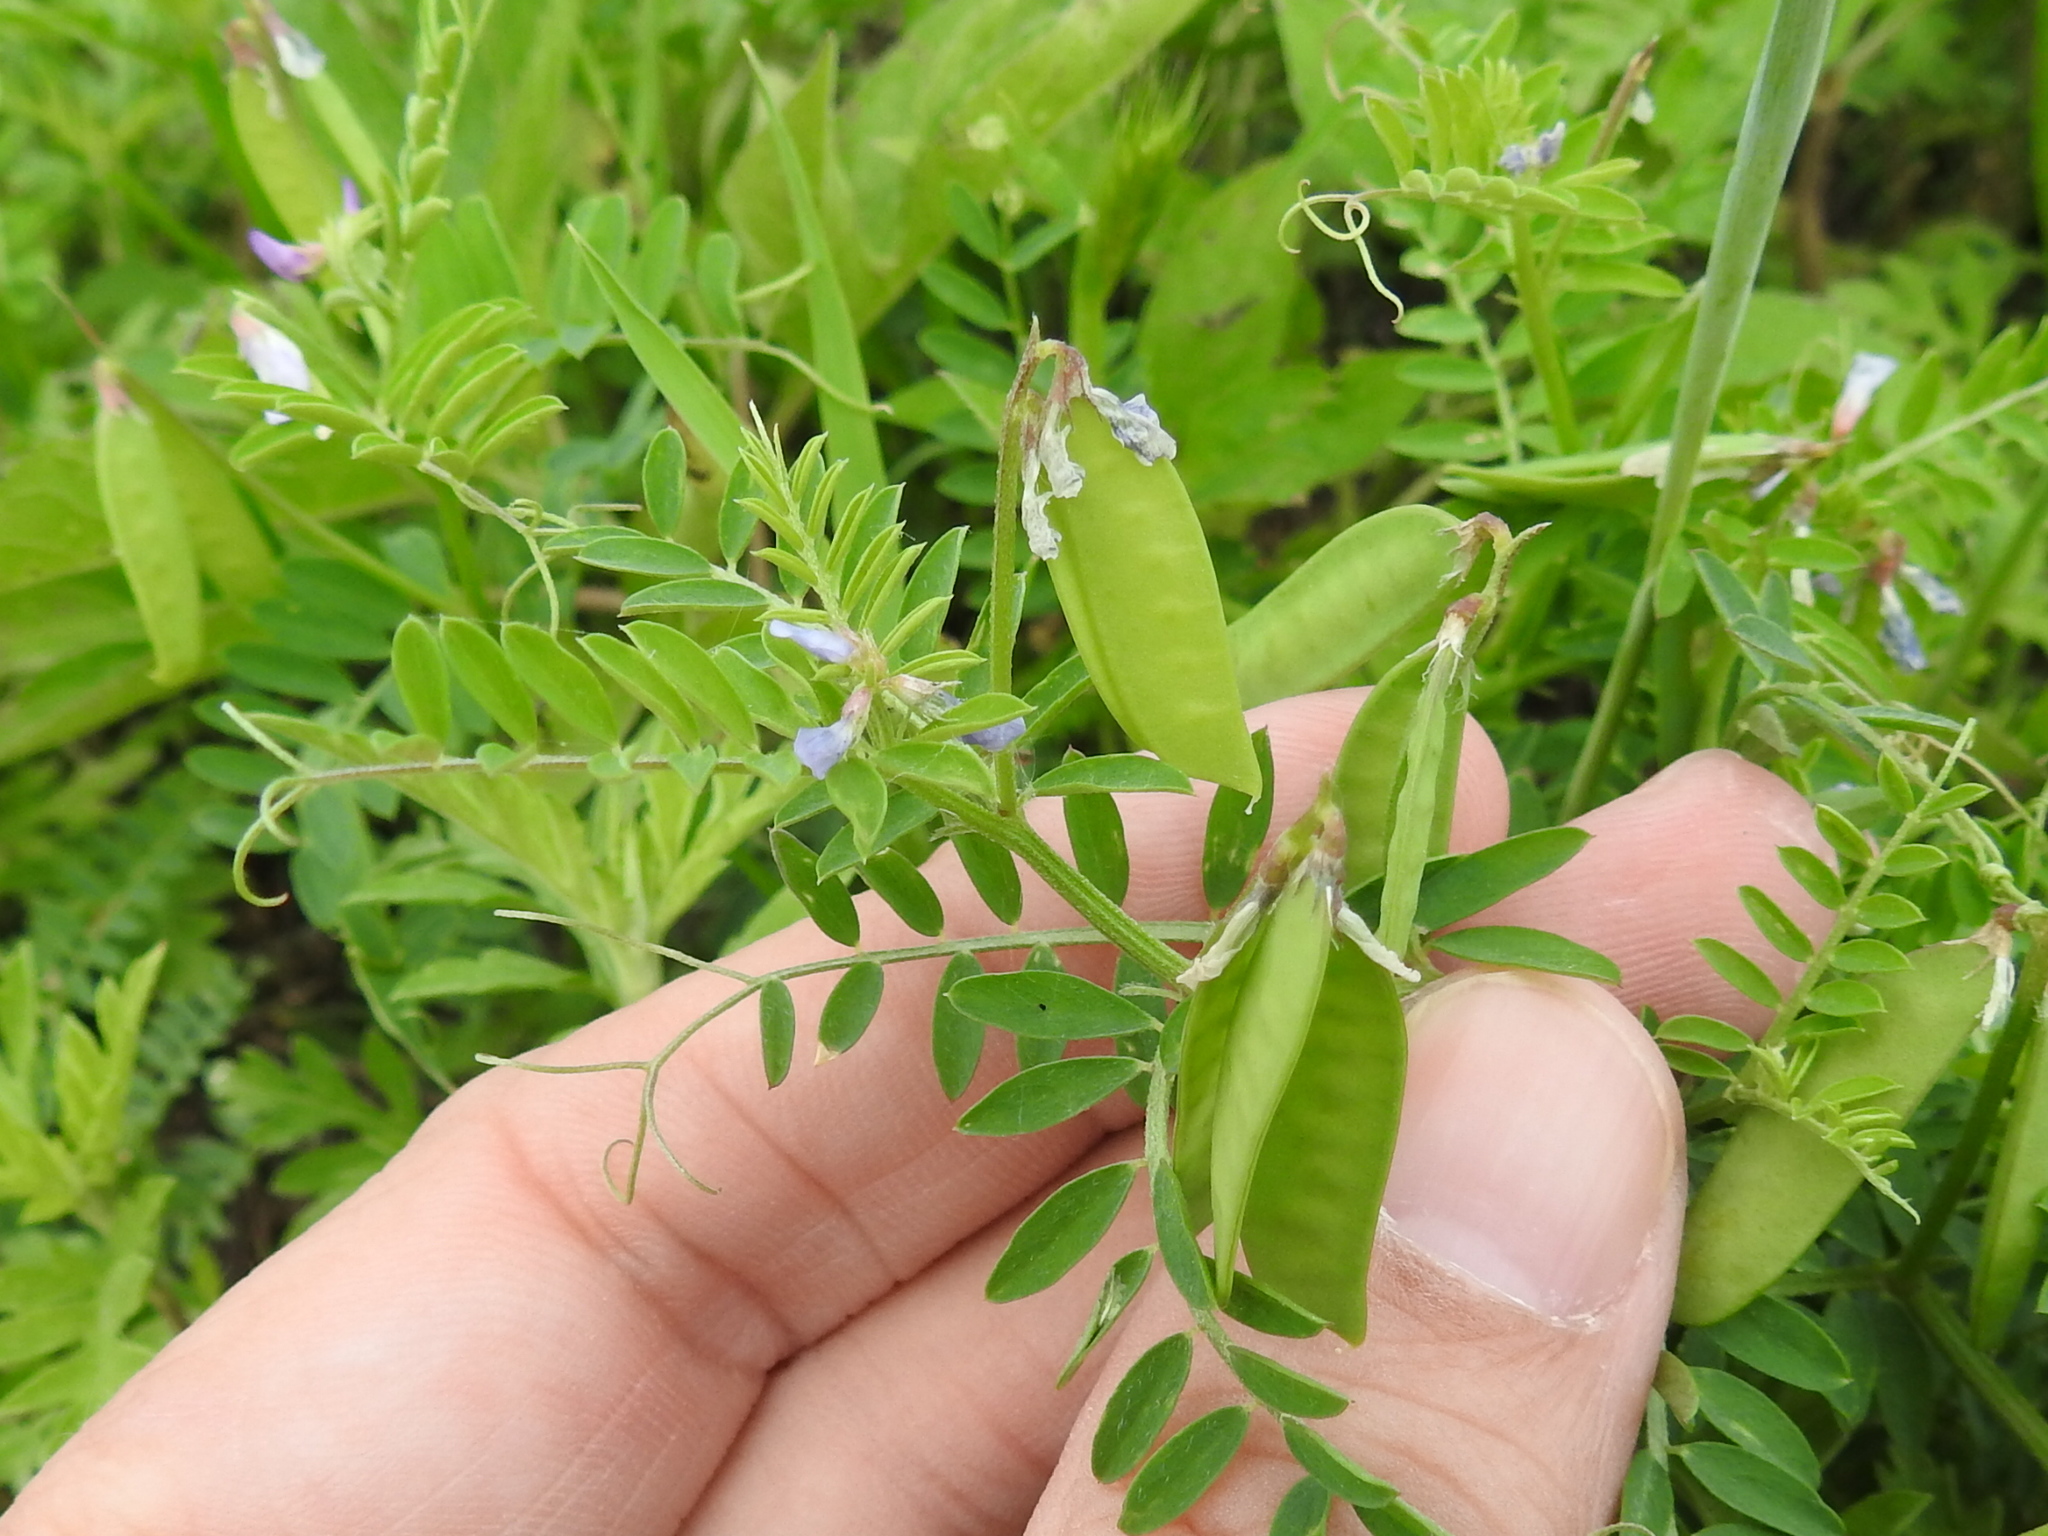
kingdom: Plantae
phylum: Tracheophyta
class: Magnoliopsida
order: Fabales
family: Fabaceae
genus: Vicia
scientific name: Vicia ludoviciana
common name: Louisiana vetch
